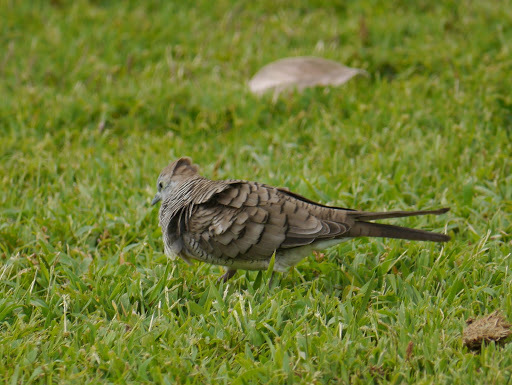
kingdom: Animalia
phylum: Chordata
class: Aves
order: Columbiformes
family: Columbidae
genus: Geopelia
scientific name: Geopelia striata
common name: Zebra dove
